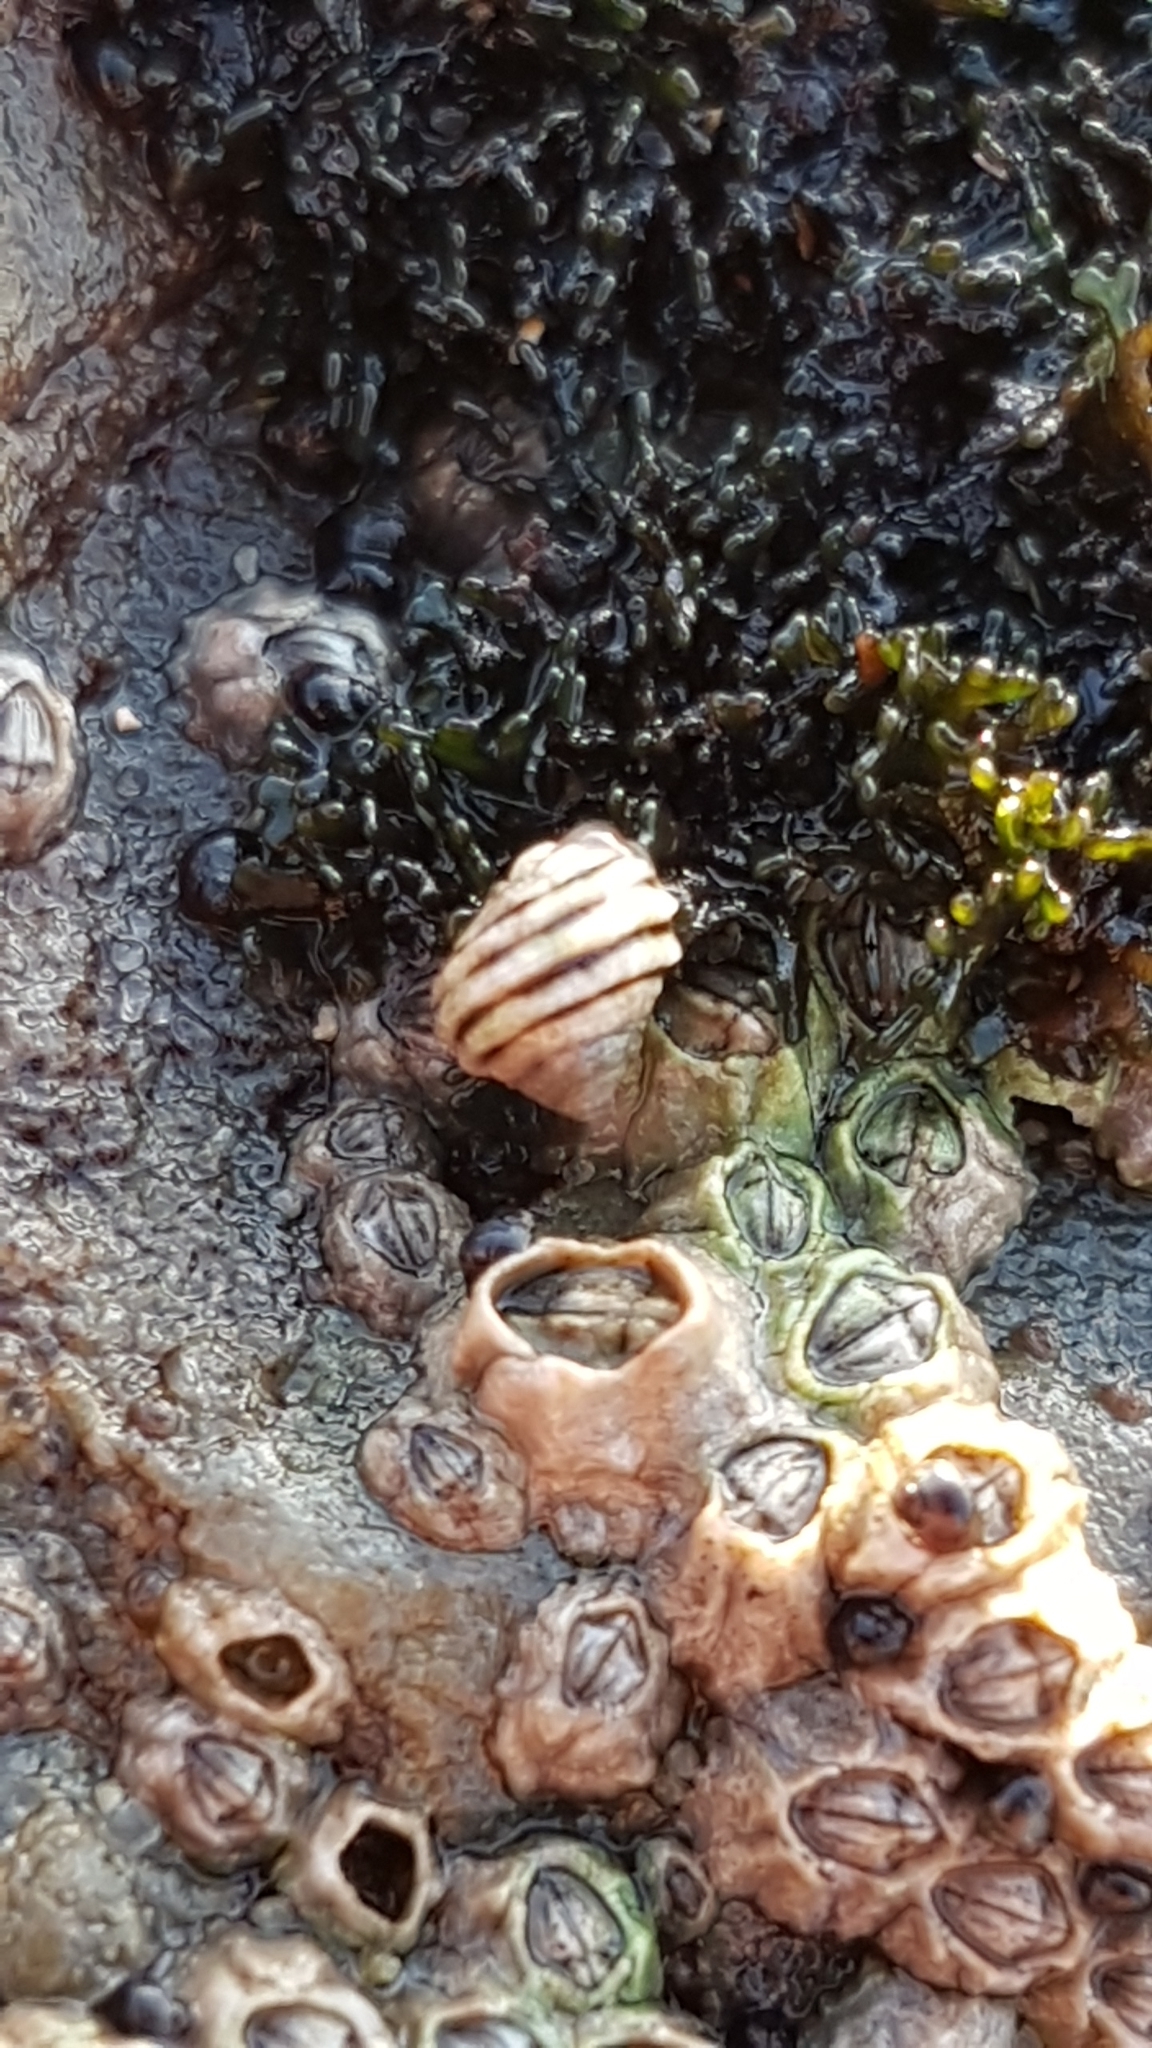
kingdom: Animalia
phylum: Mollusca
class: Gastropoda
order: Littorinimorpha
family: Littorinidae
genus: Littorina
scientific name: Littorina saxatilis
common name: Black-lined periwinkle
